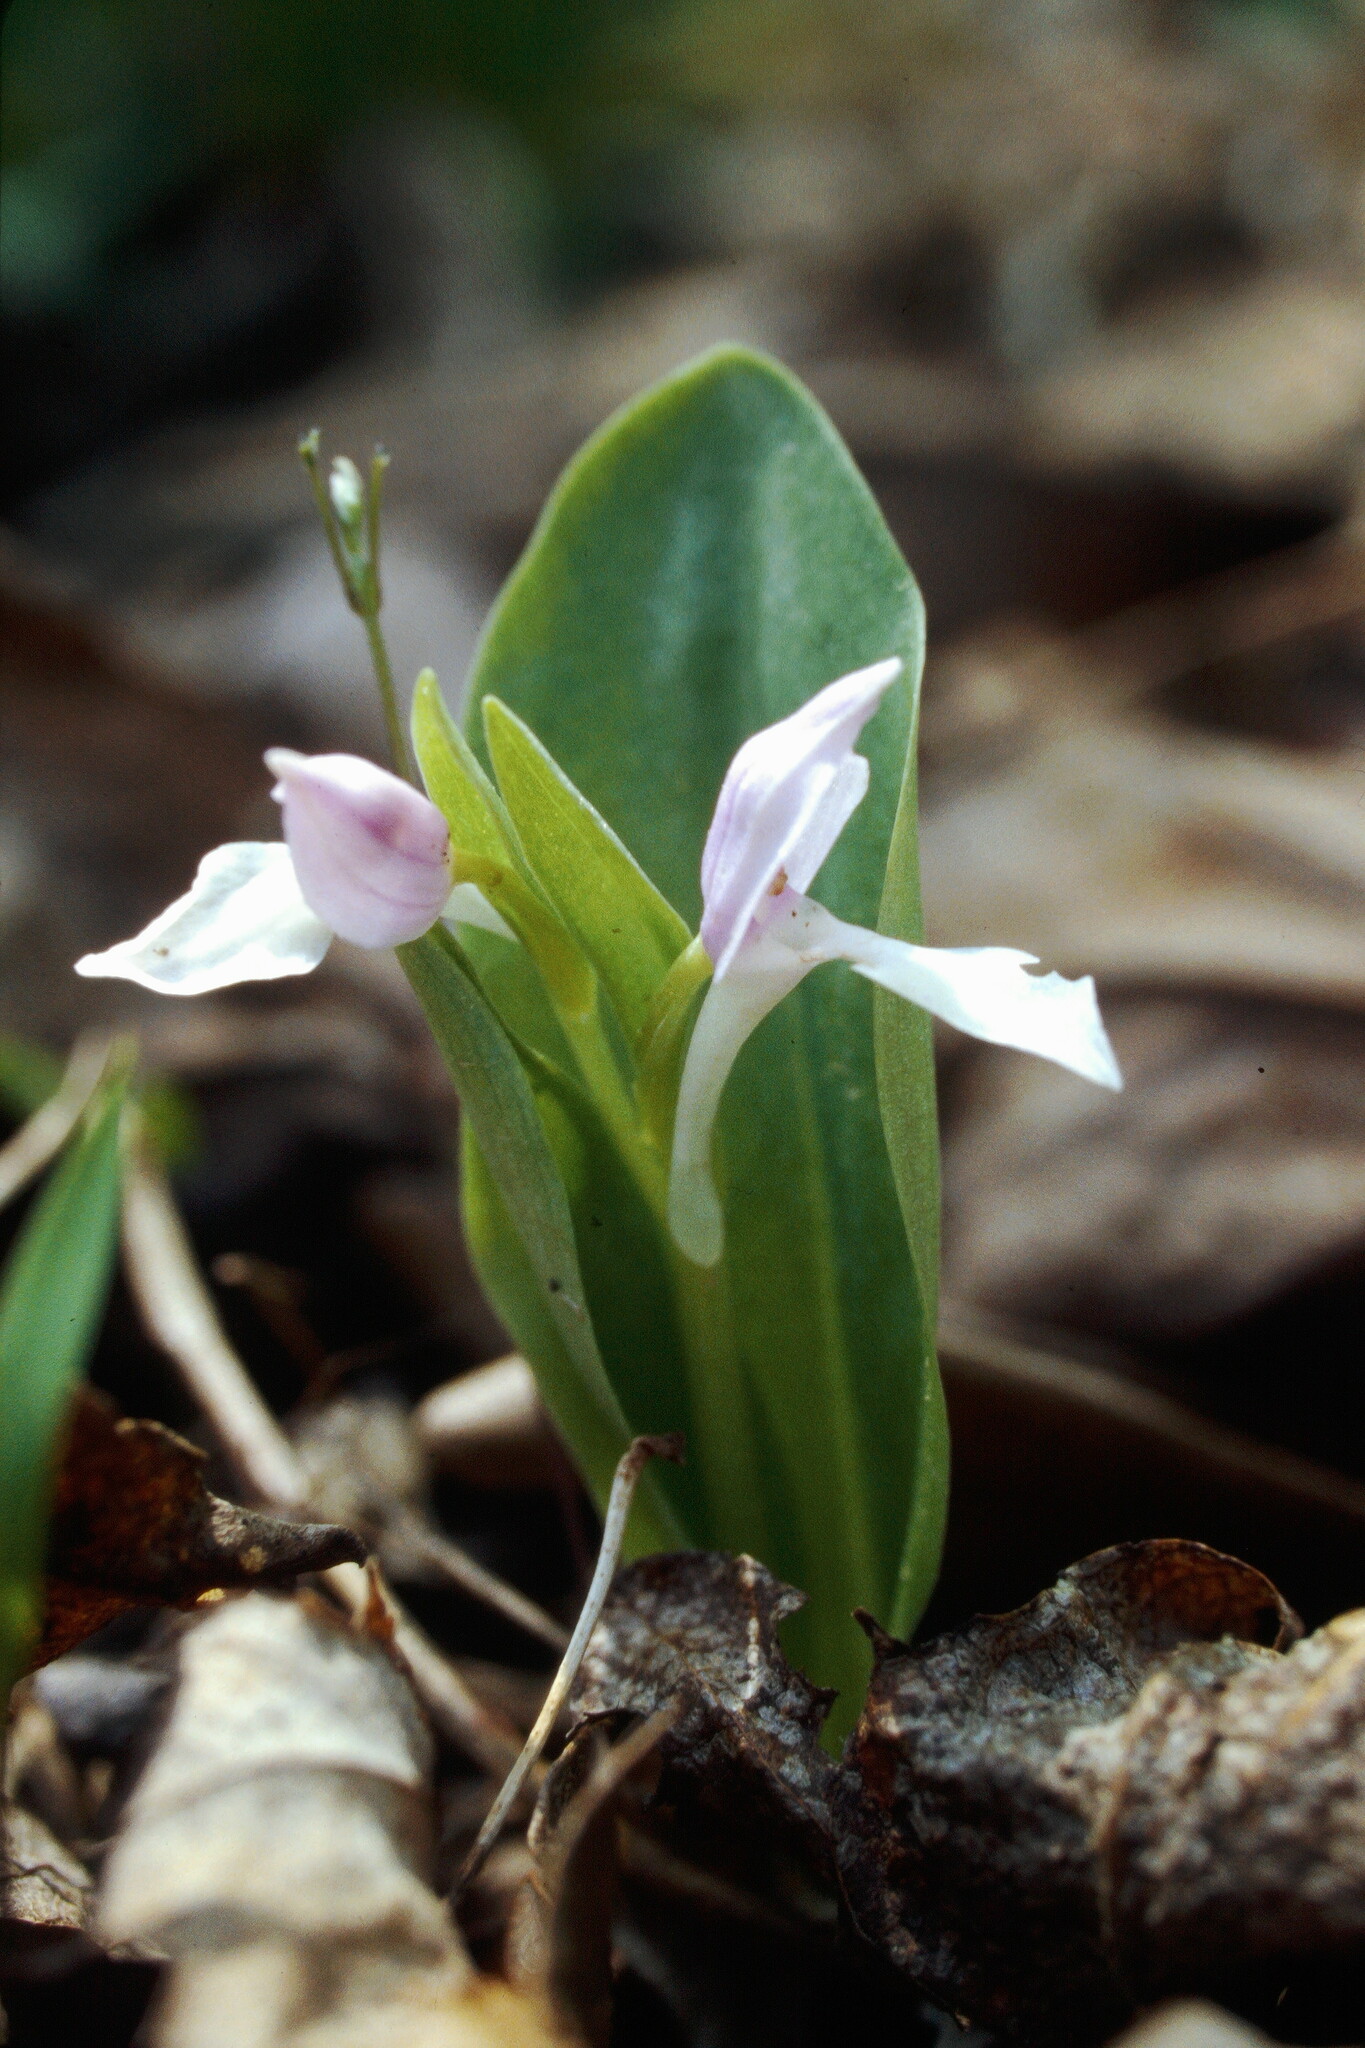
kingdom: Plantae
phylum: Tracheophyta
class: Liliopsida
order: Asparagales
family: Orchidaceae
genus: Galearis
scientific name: Galearis spectabilis
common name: Purple-hooded orchis
